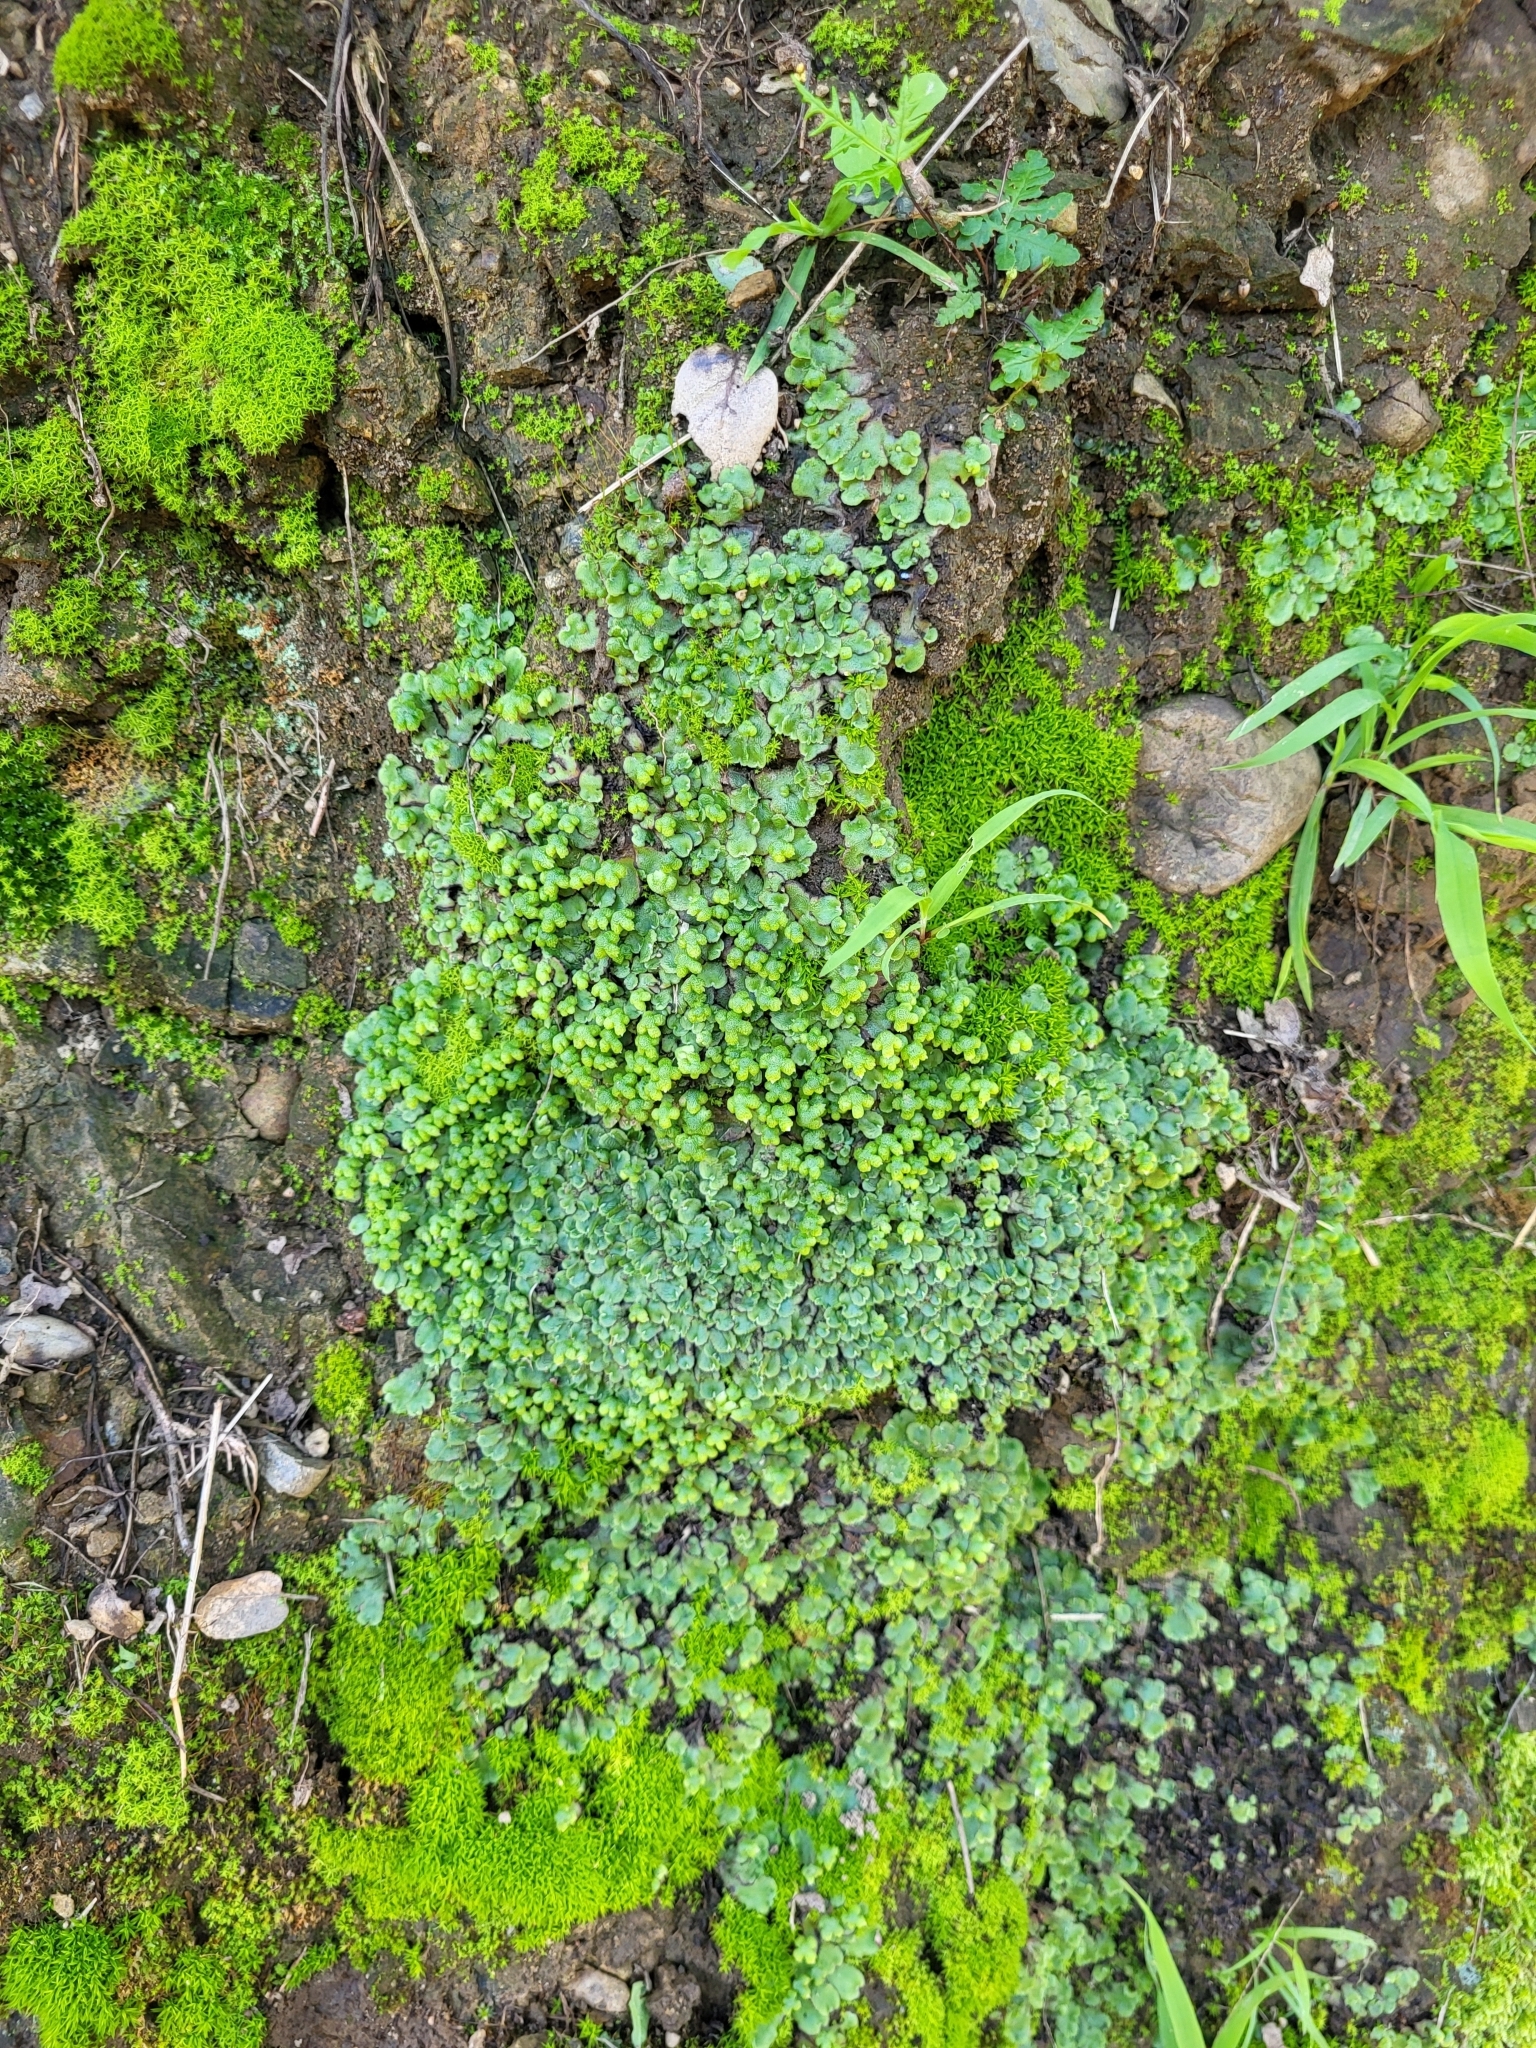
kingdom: Plantae
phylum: Marchantiophyta
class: Marchantiopsida
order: Marchantiales
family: Aytoniaceae
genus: Asterella
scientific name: Asterella californica
